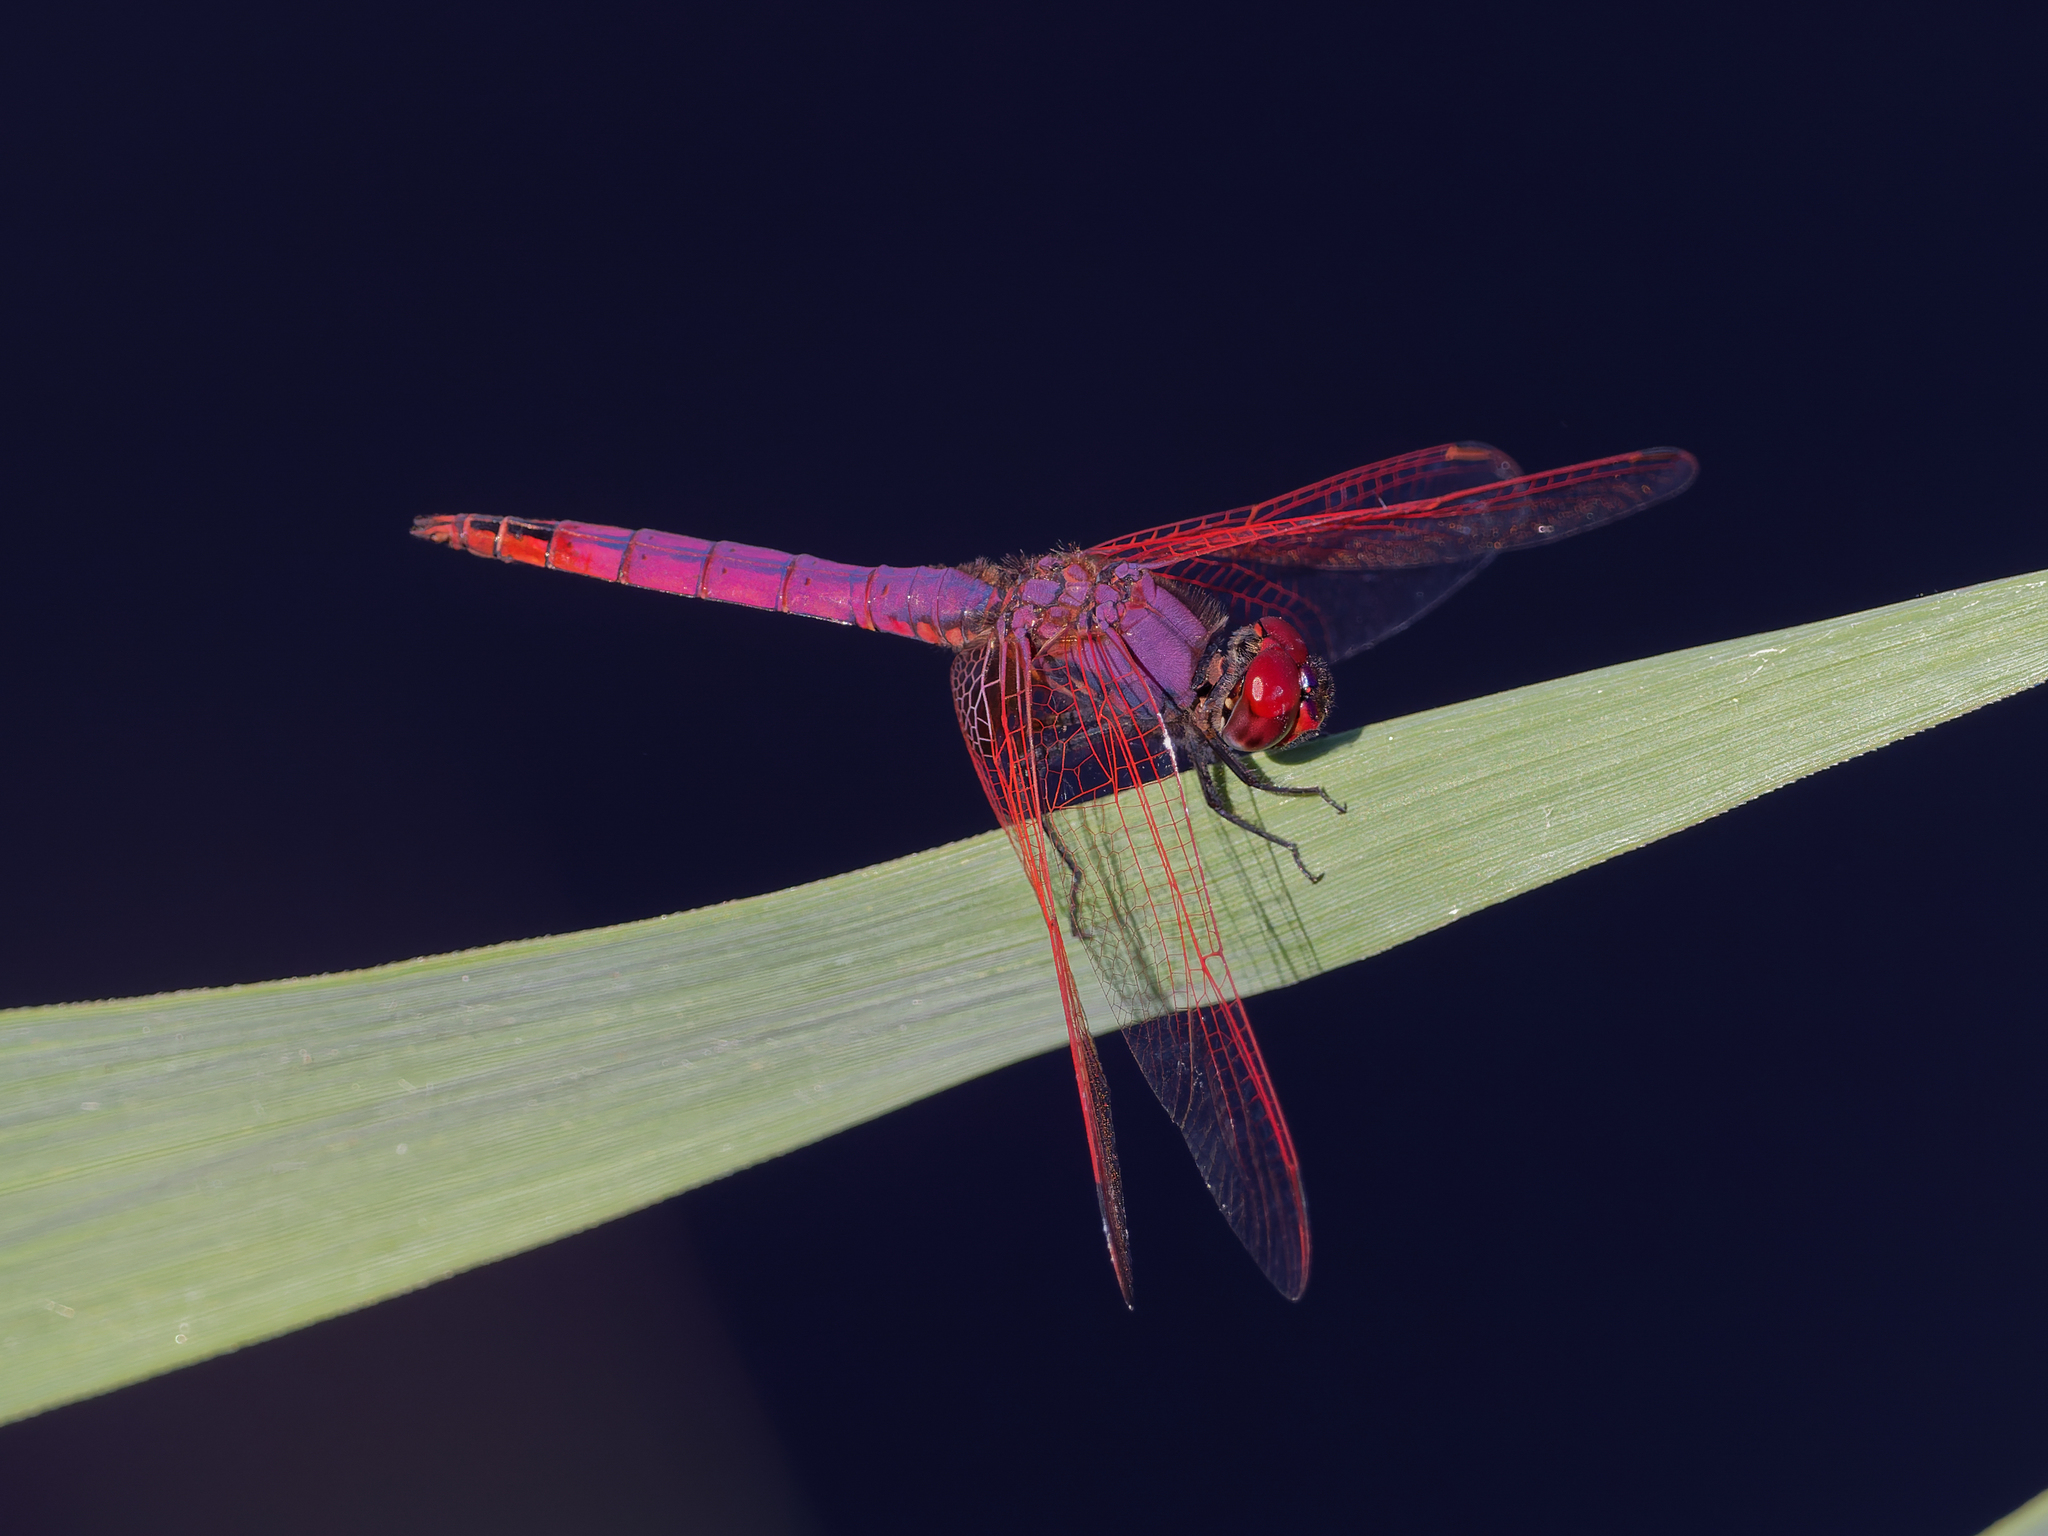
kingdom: Animalia
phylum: Arthropoda
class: Insecta
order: Odonata
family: Libellulidae
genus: Trithemis
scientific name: Trithemis annulata
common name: Violet dropwing
